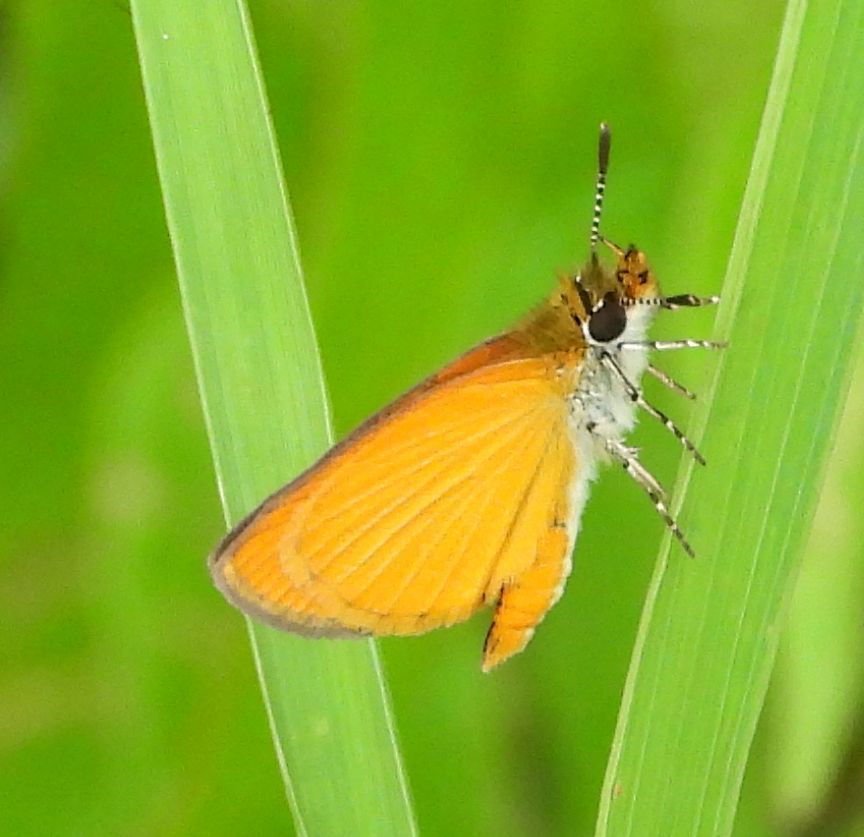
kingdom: Animalia
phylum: Arthropoda
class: Insecta
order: Lepidoptera
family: Hesperiidae
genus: Ancyloxypha
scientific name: Ancyloxypha numitor
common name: Least skipper
